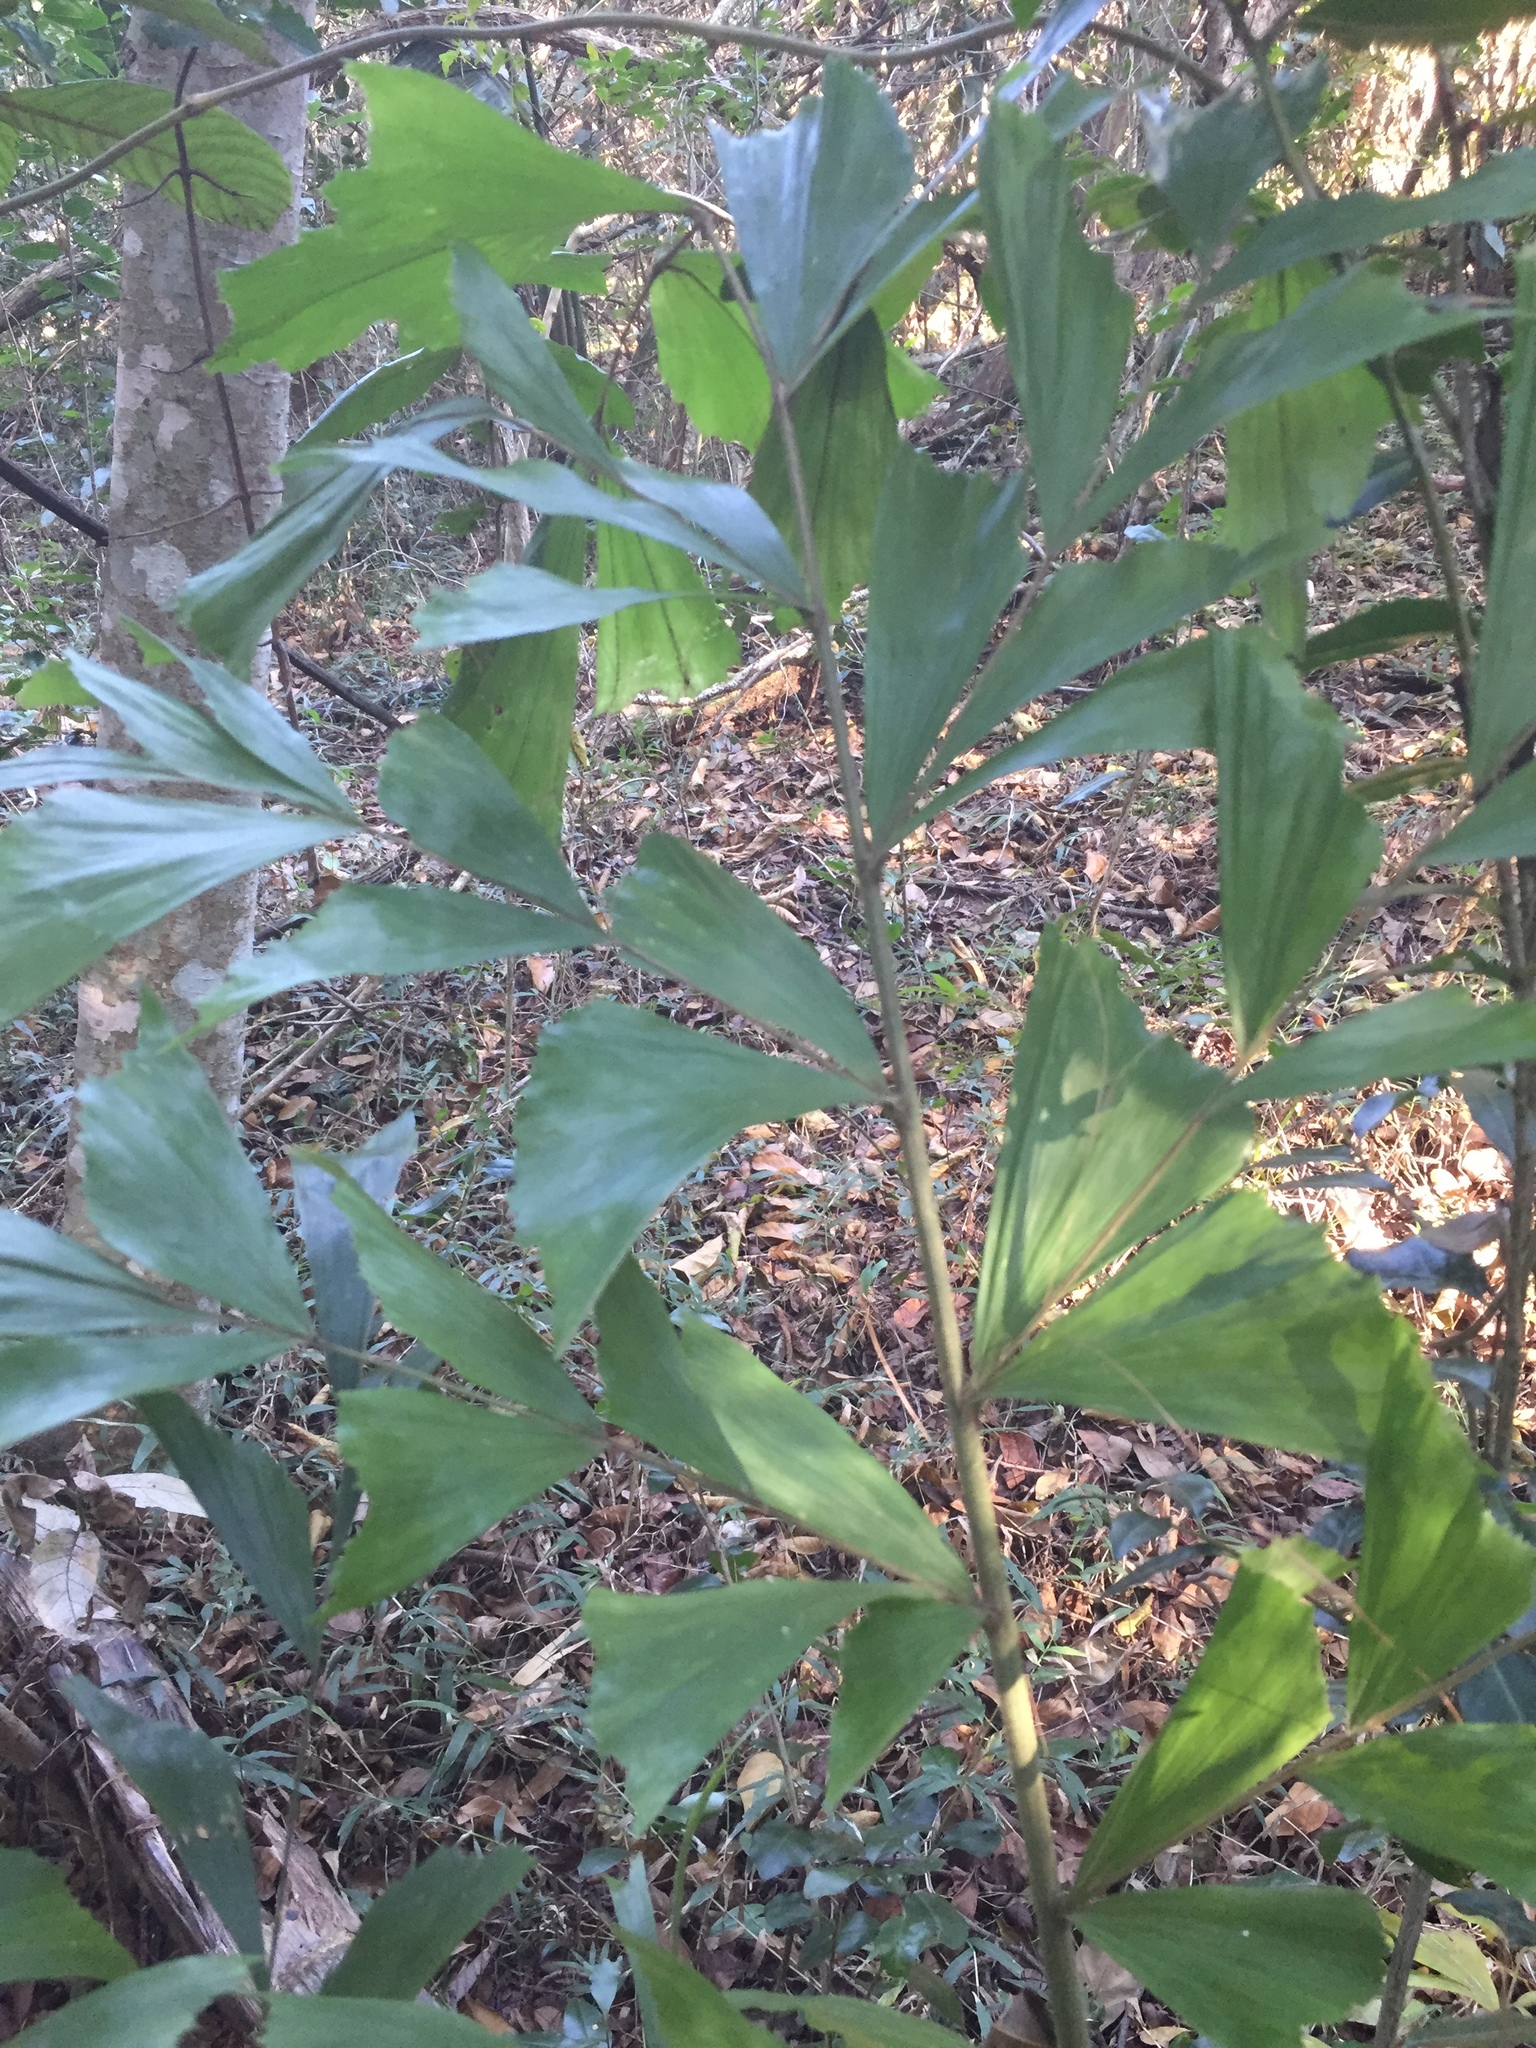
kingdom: Plantae
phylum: Tracheophyta
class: Liliopsida
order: Arecales
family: Arecaceae
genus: Caryota
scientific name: Caryota mitis
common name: Burmese fishtail palm
